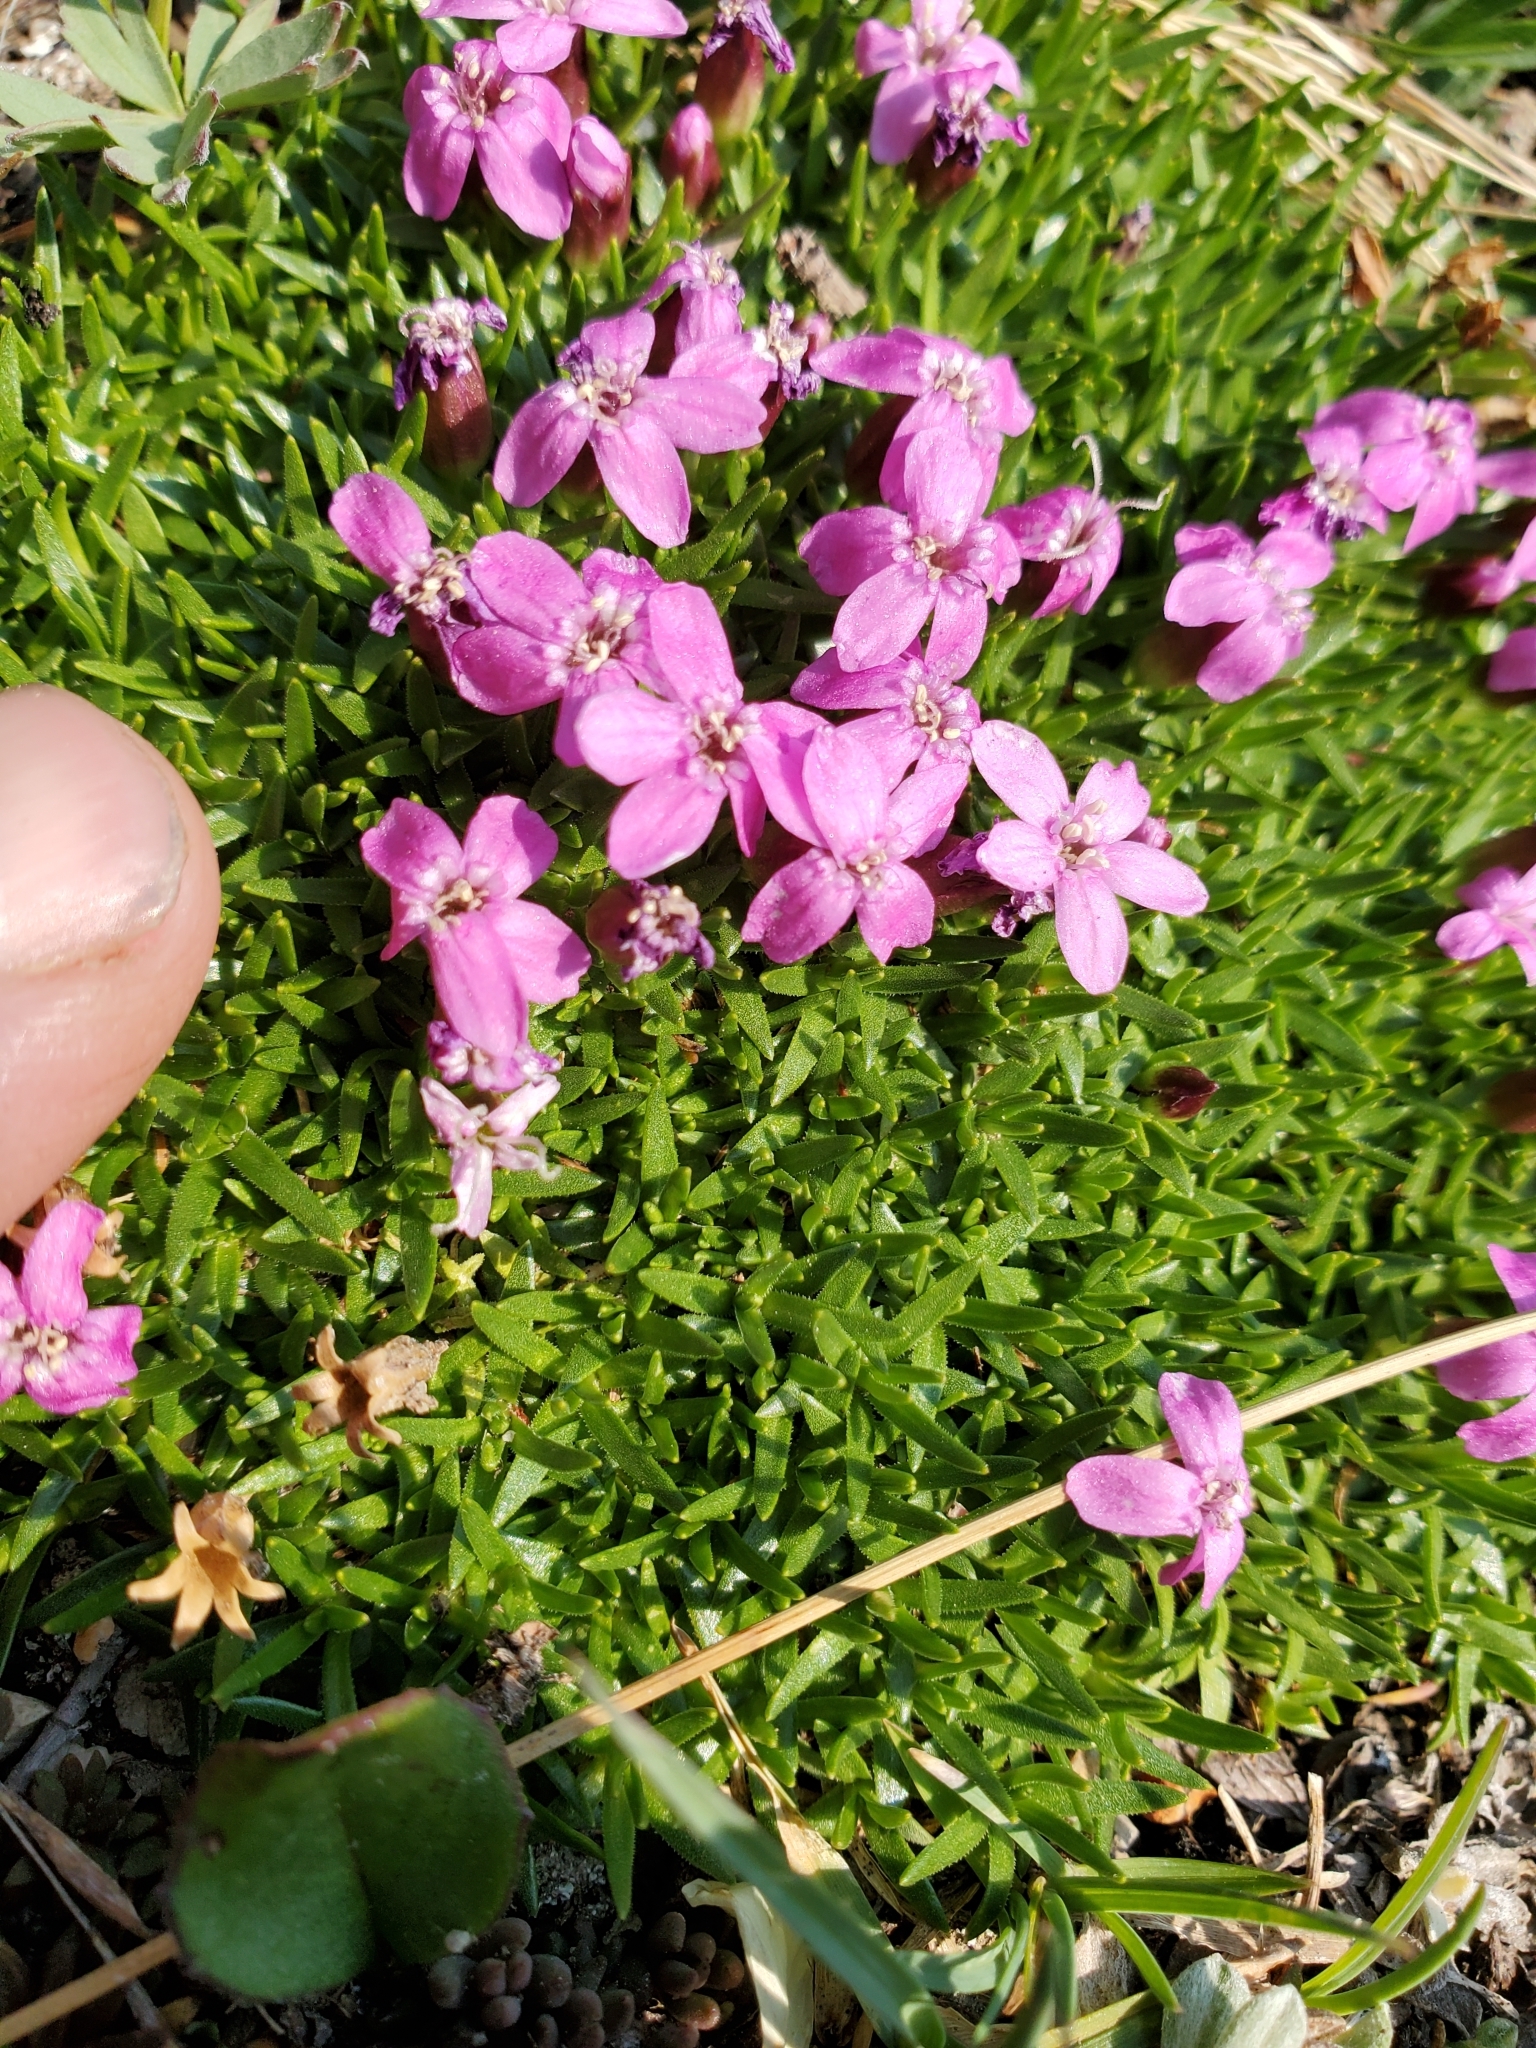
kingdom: Plantae
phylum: Tracheophyta
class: Magnoliopsida
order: Caryophyllales
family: Caryophyllaceae
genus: Silene
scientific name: Silene acaulis
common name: Moss campion
